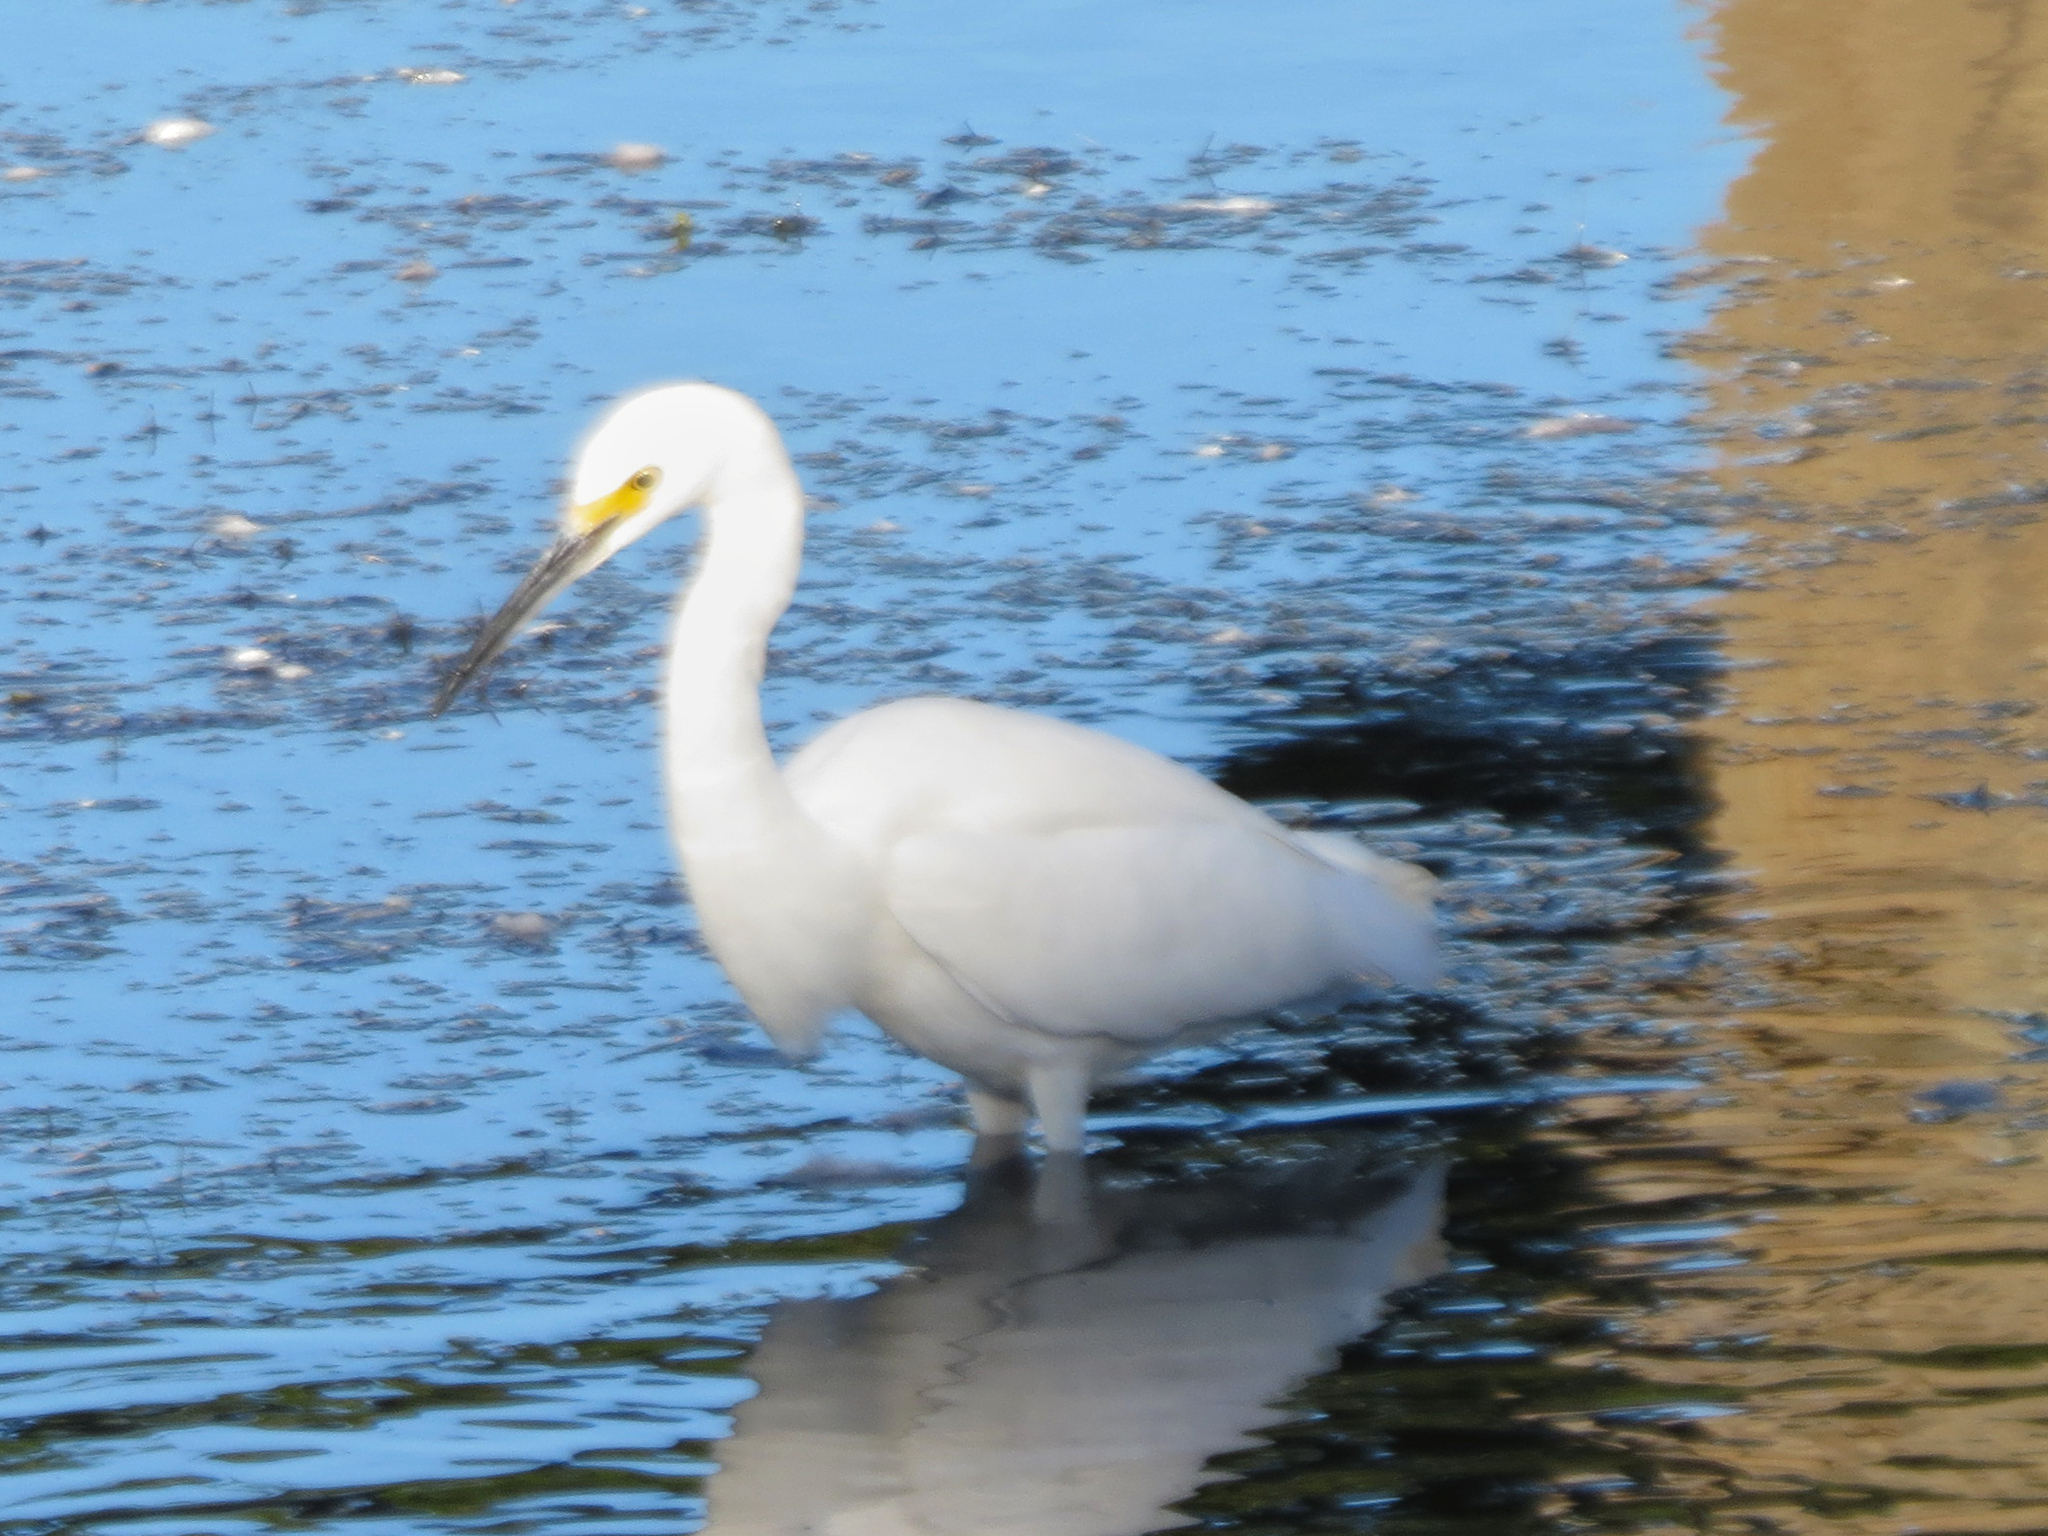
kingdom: Animalia
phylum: Chordata
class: Aves
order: Pelecaniformes
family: Ardeidae
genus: Egretta
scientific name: Egretta thula
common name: Snowy egret
